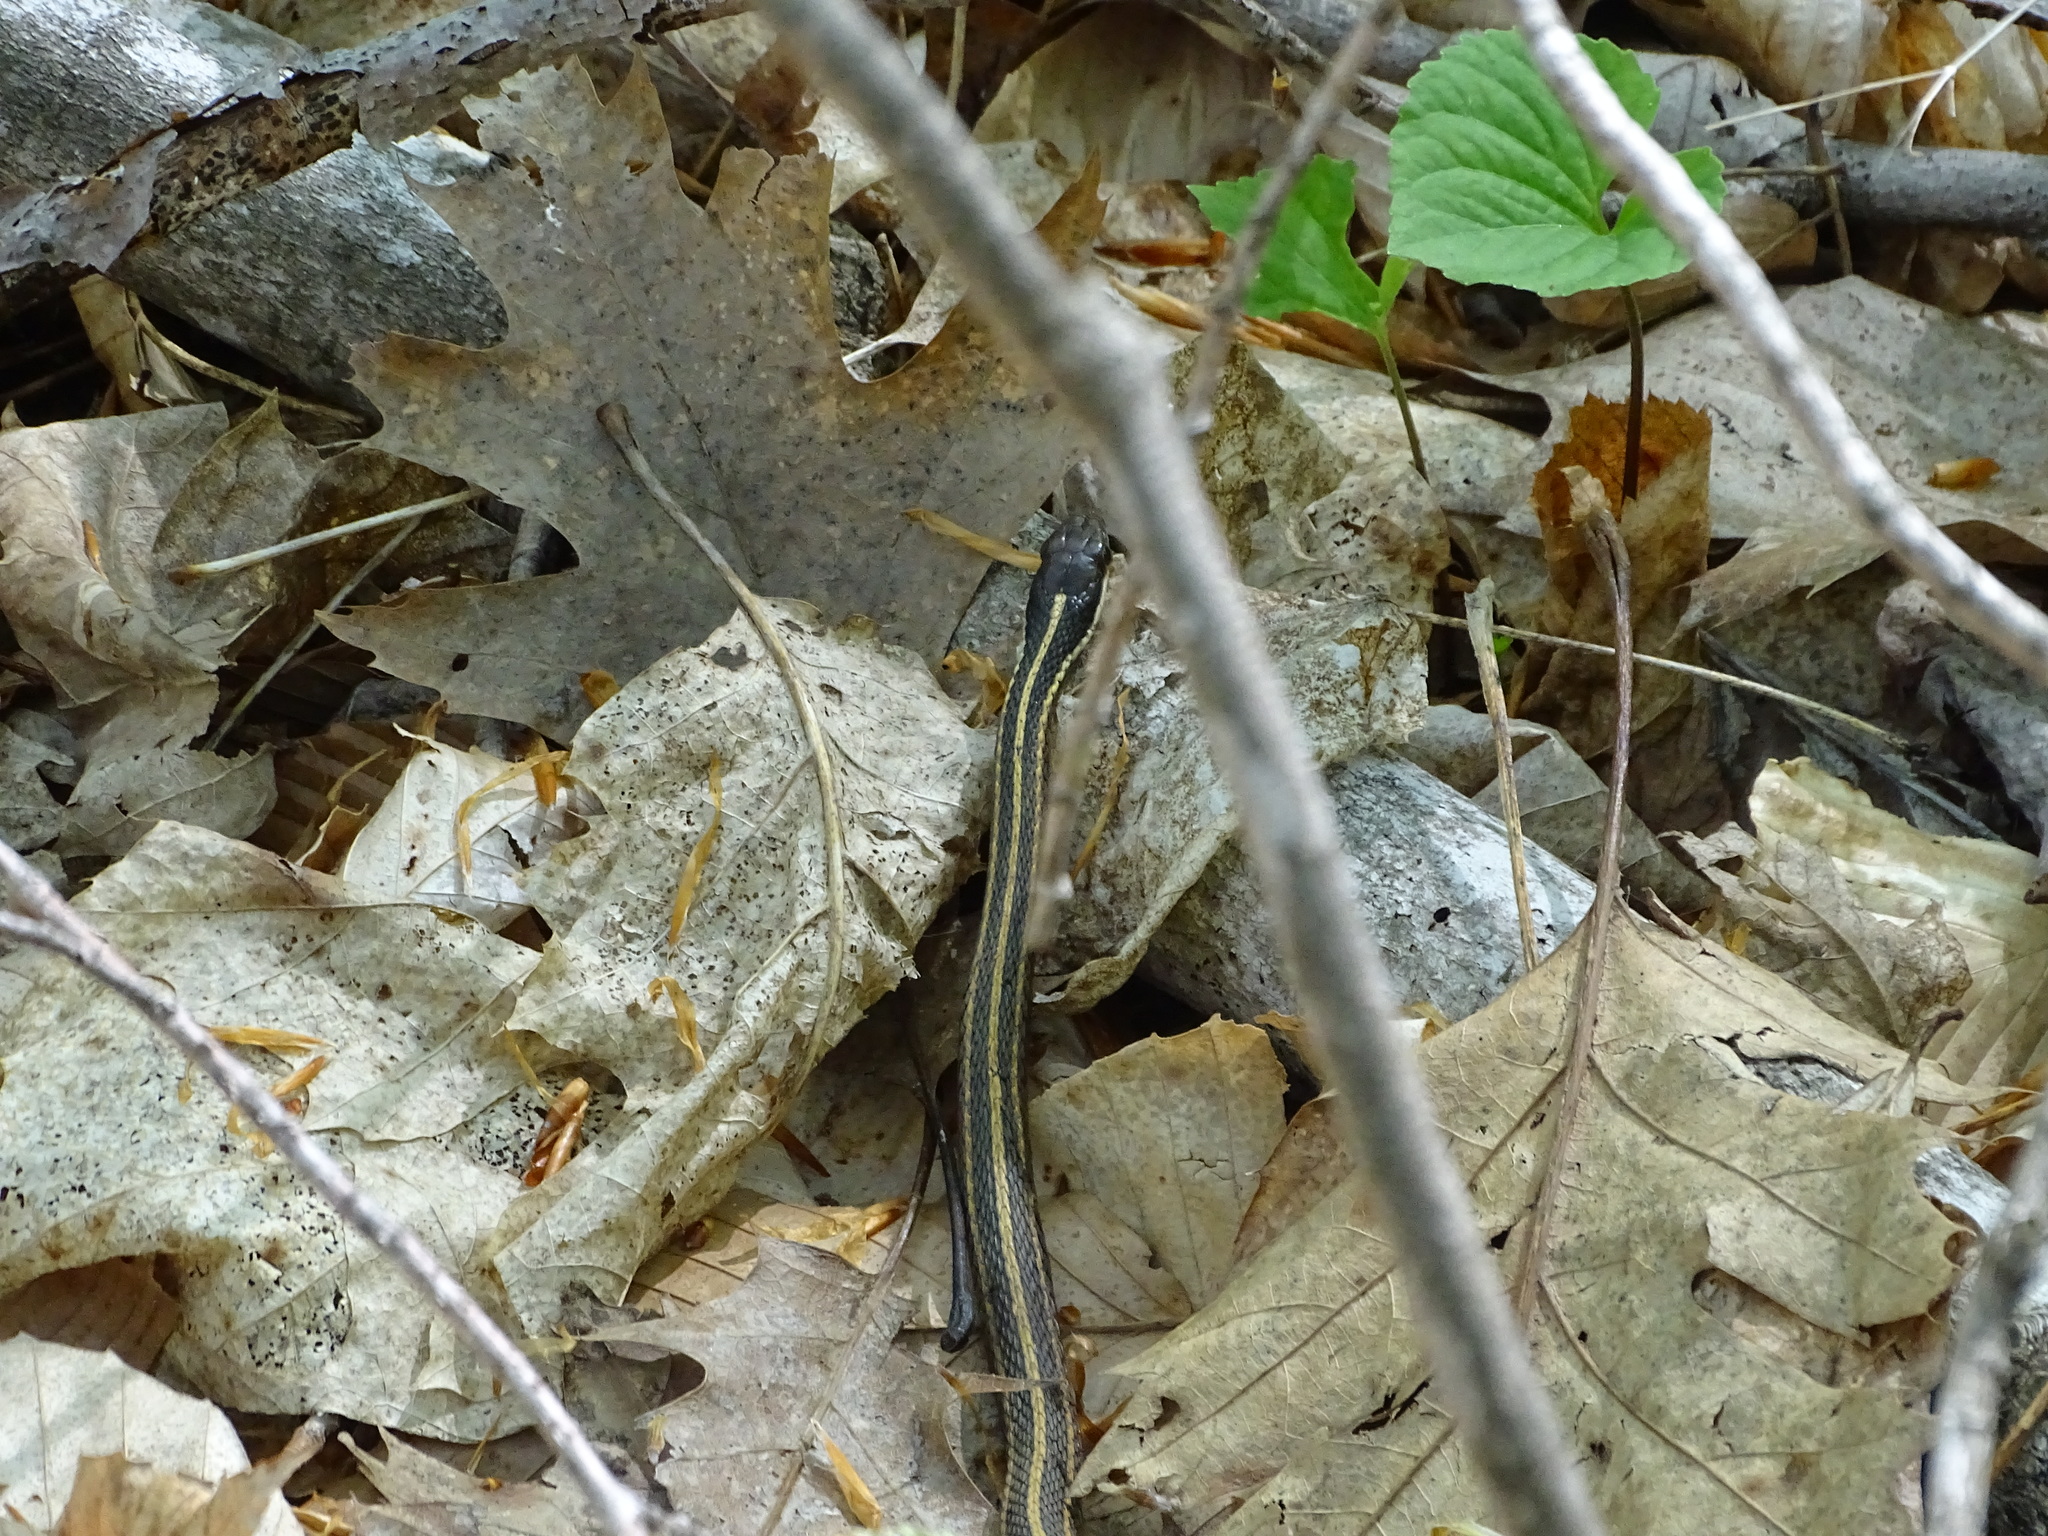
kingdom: Animalia
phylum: Chordata
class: Squamata
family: Colubridae
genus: Thamnophis
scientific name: Thamnophis saurita
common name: Eastern ribbonsnake
